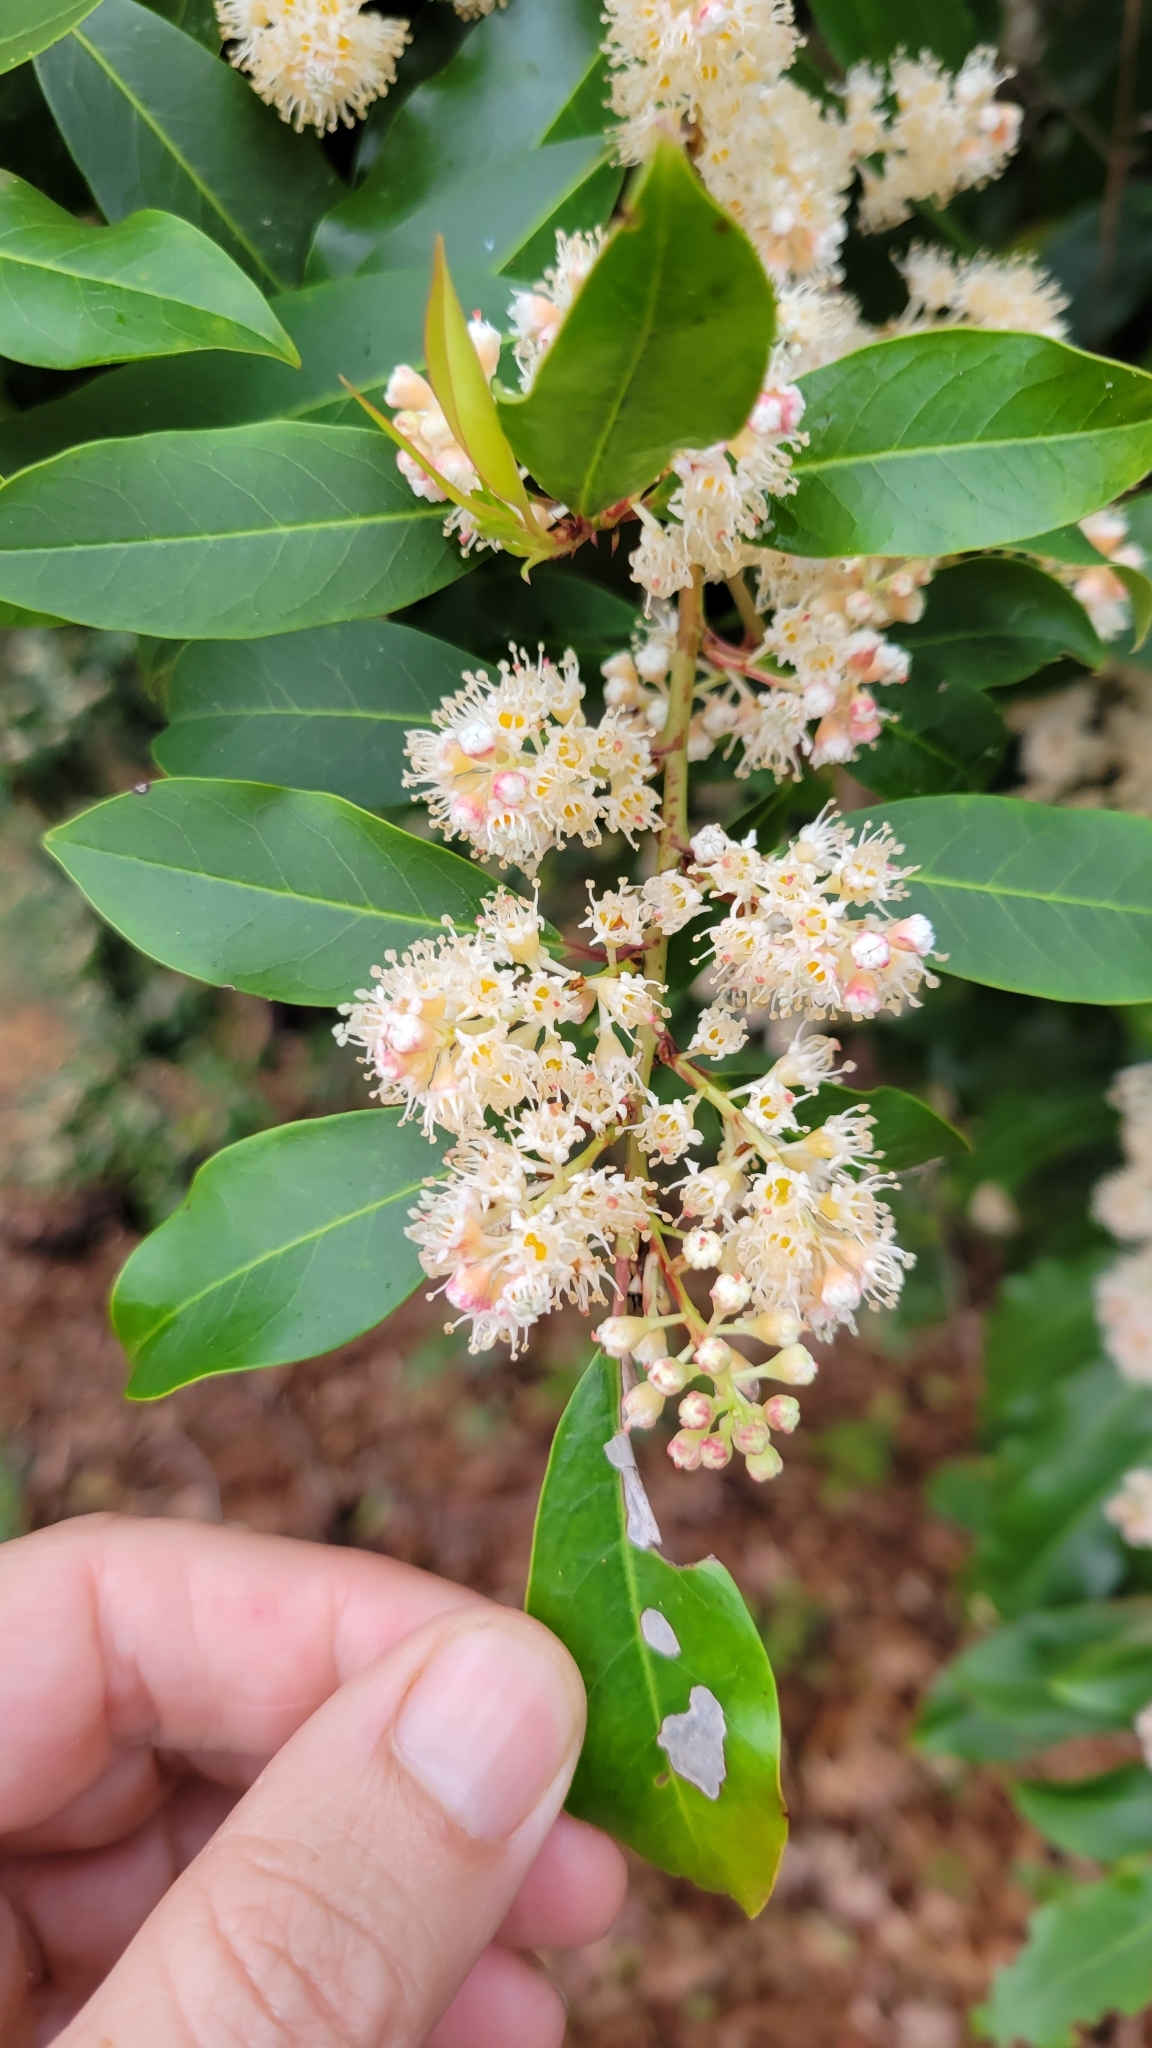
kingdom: Plantae
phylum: Tracheophyta
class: Magnoliopsida
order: Rosales
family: Rosaceae
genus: Prunus
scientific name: Prunus caroliniana
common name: Carolina laurel cherry
